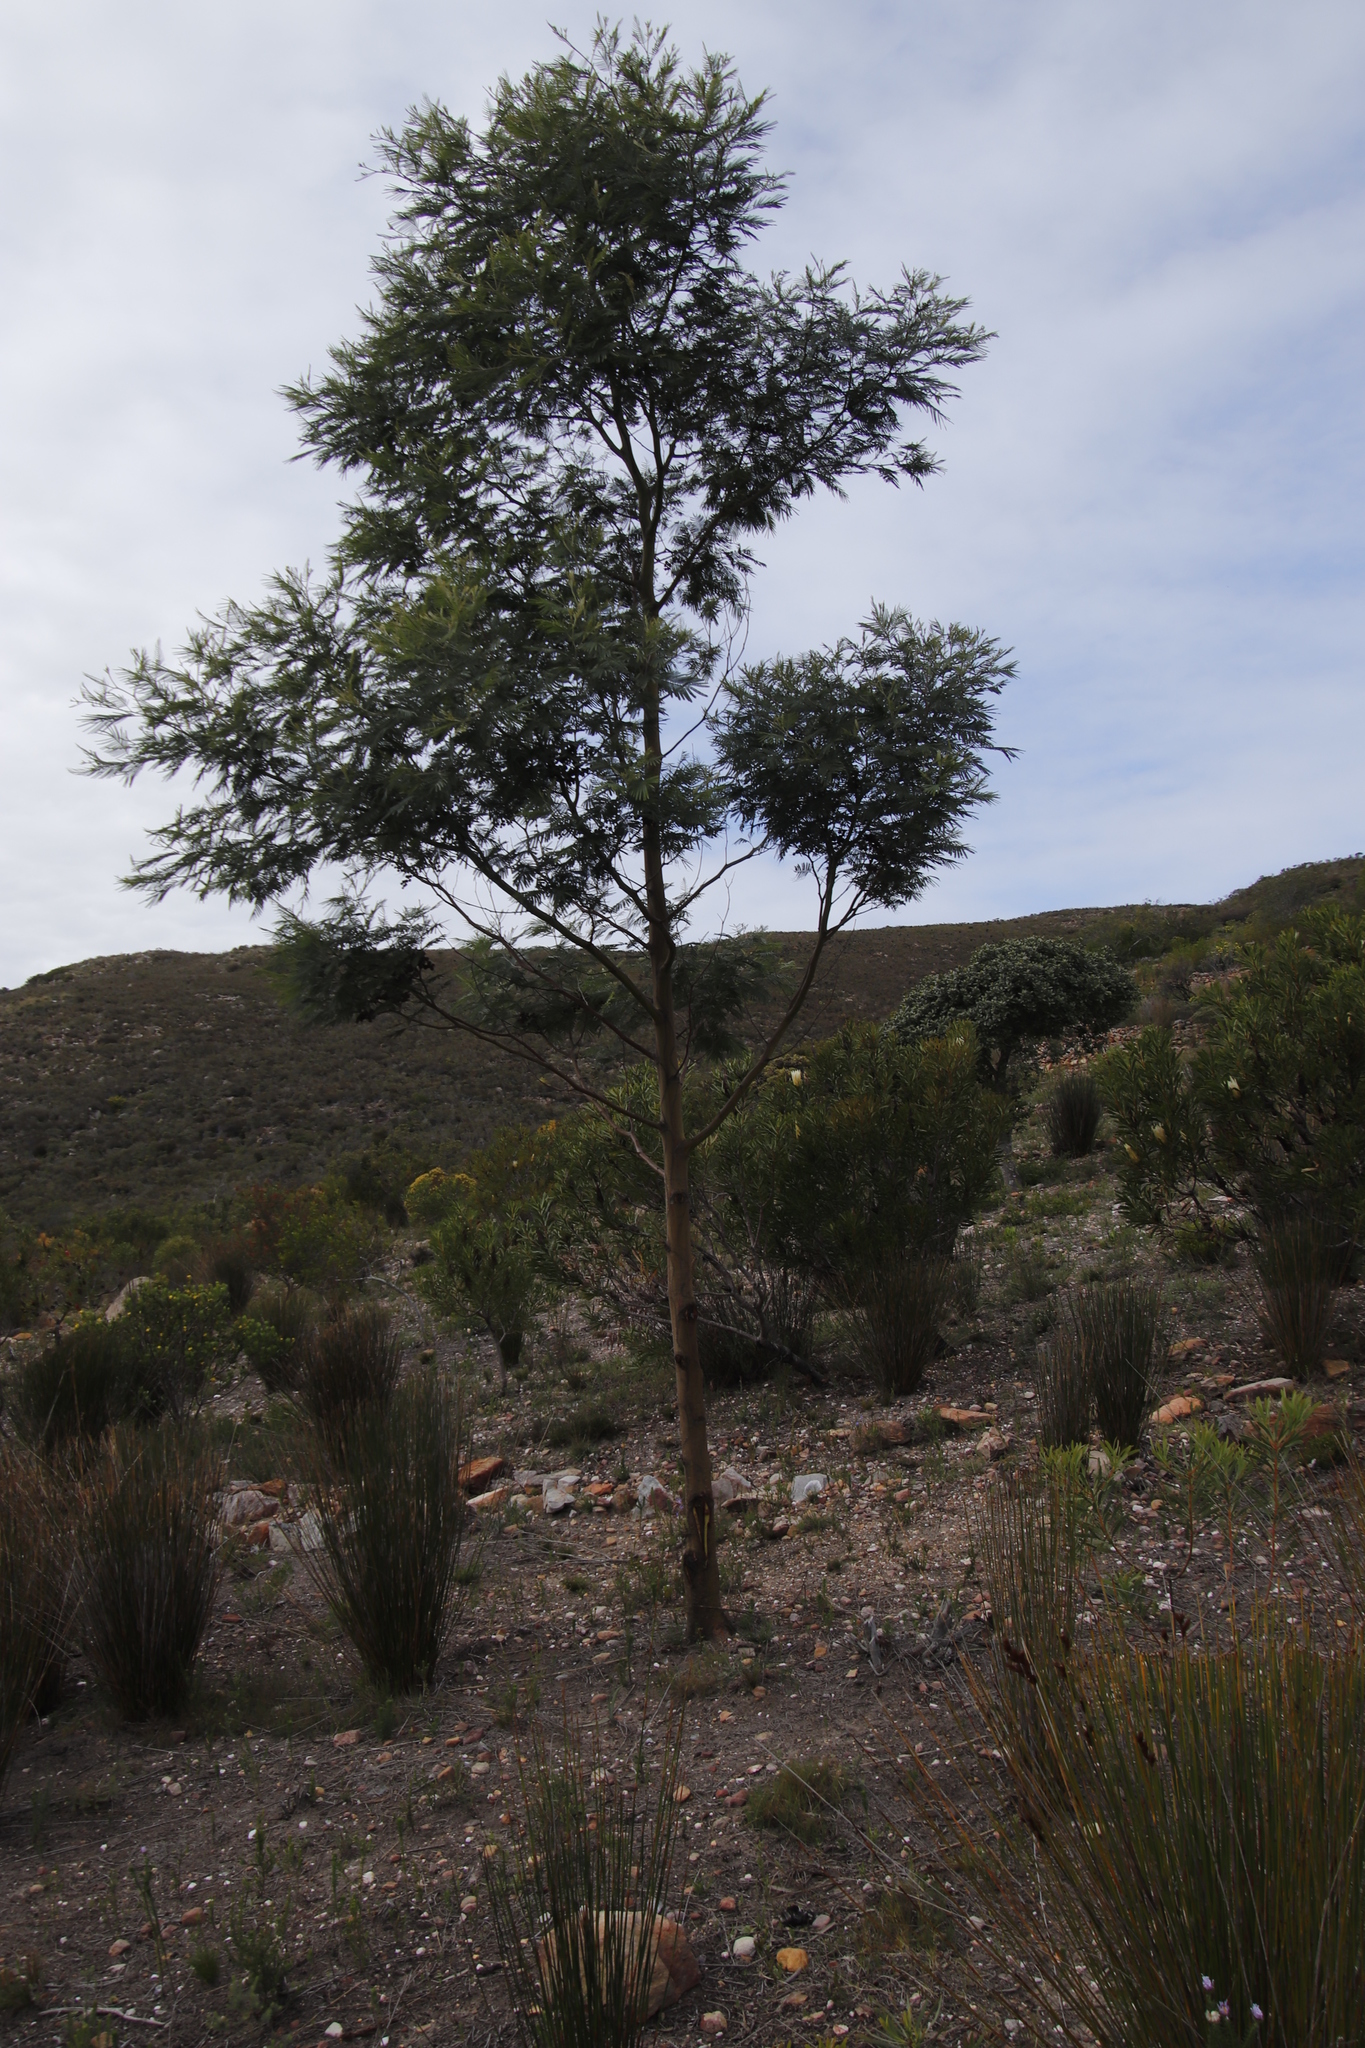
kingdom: Plantae
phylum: Tracheophyta
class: Magnoliopsida
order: Fabales
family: Fabaceae
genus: Acacia
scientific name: Acacia mearnsii
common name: Black wattle
